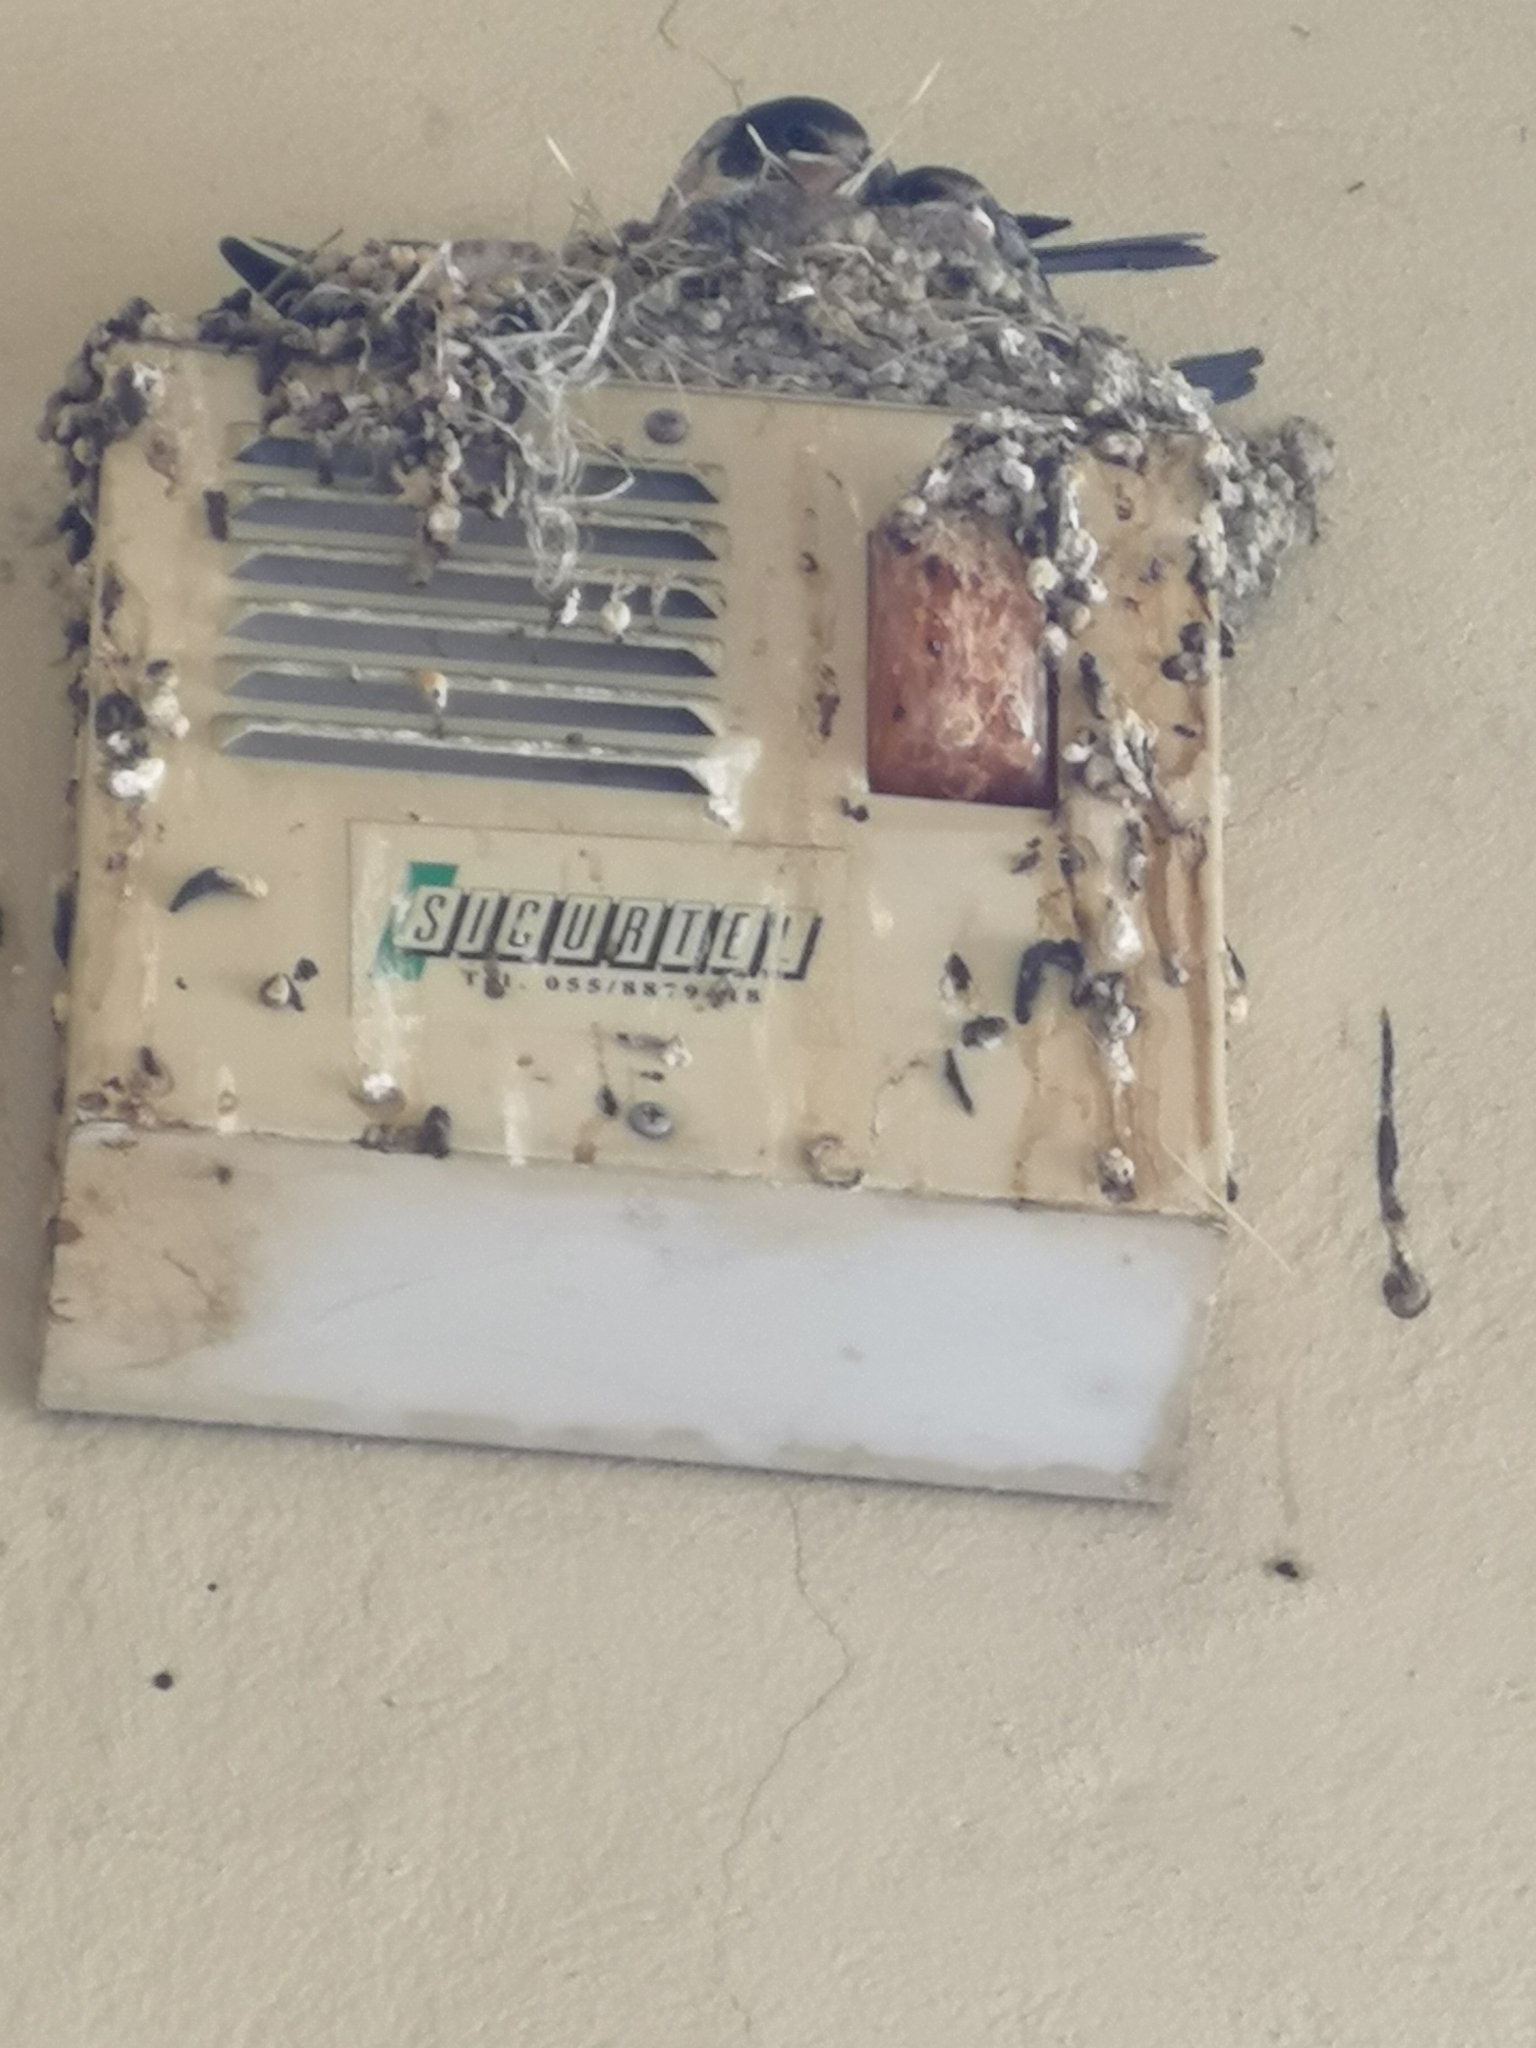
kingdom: Animalia
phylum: Chordata
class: Aves
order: Passeriformes
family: Hirundinidae
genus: Hirundo
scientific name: Hirundo rustica
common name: Barn swallow
